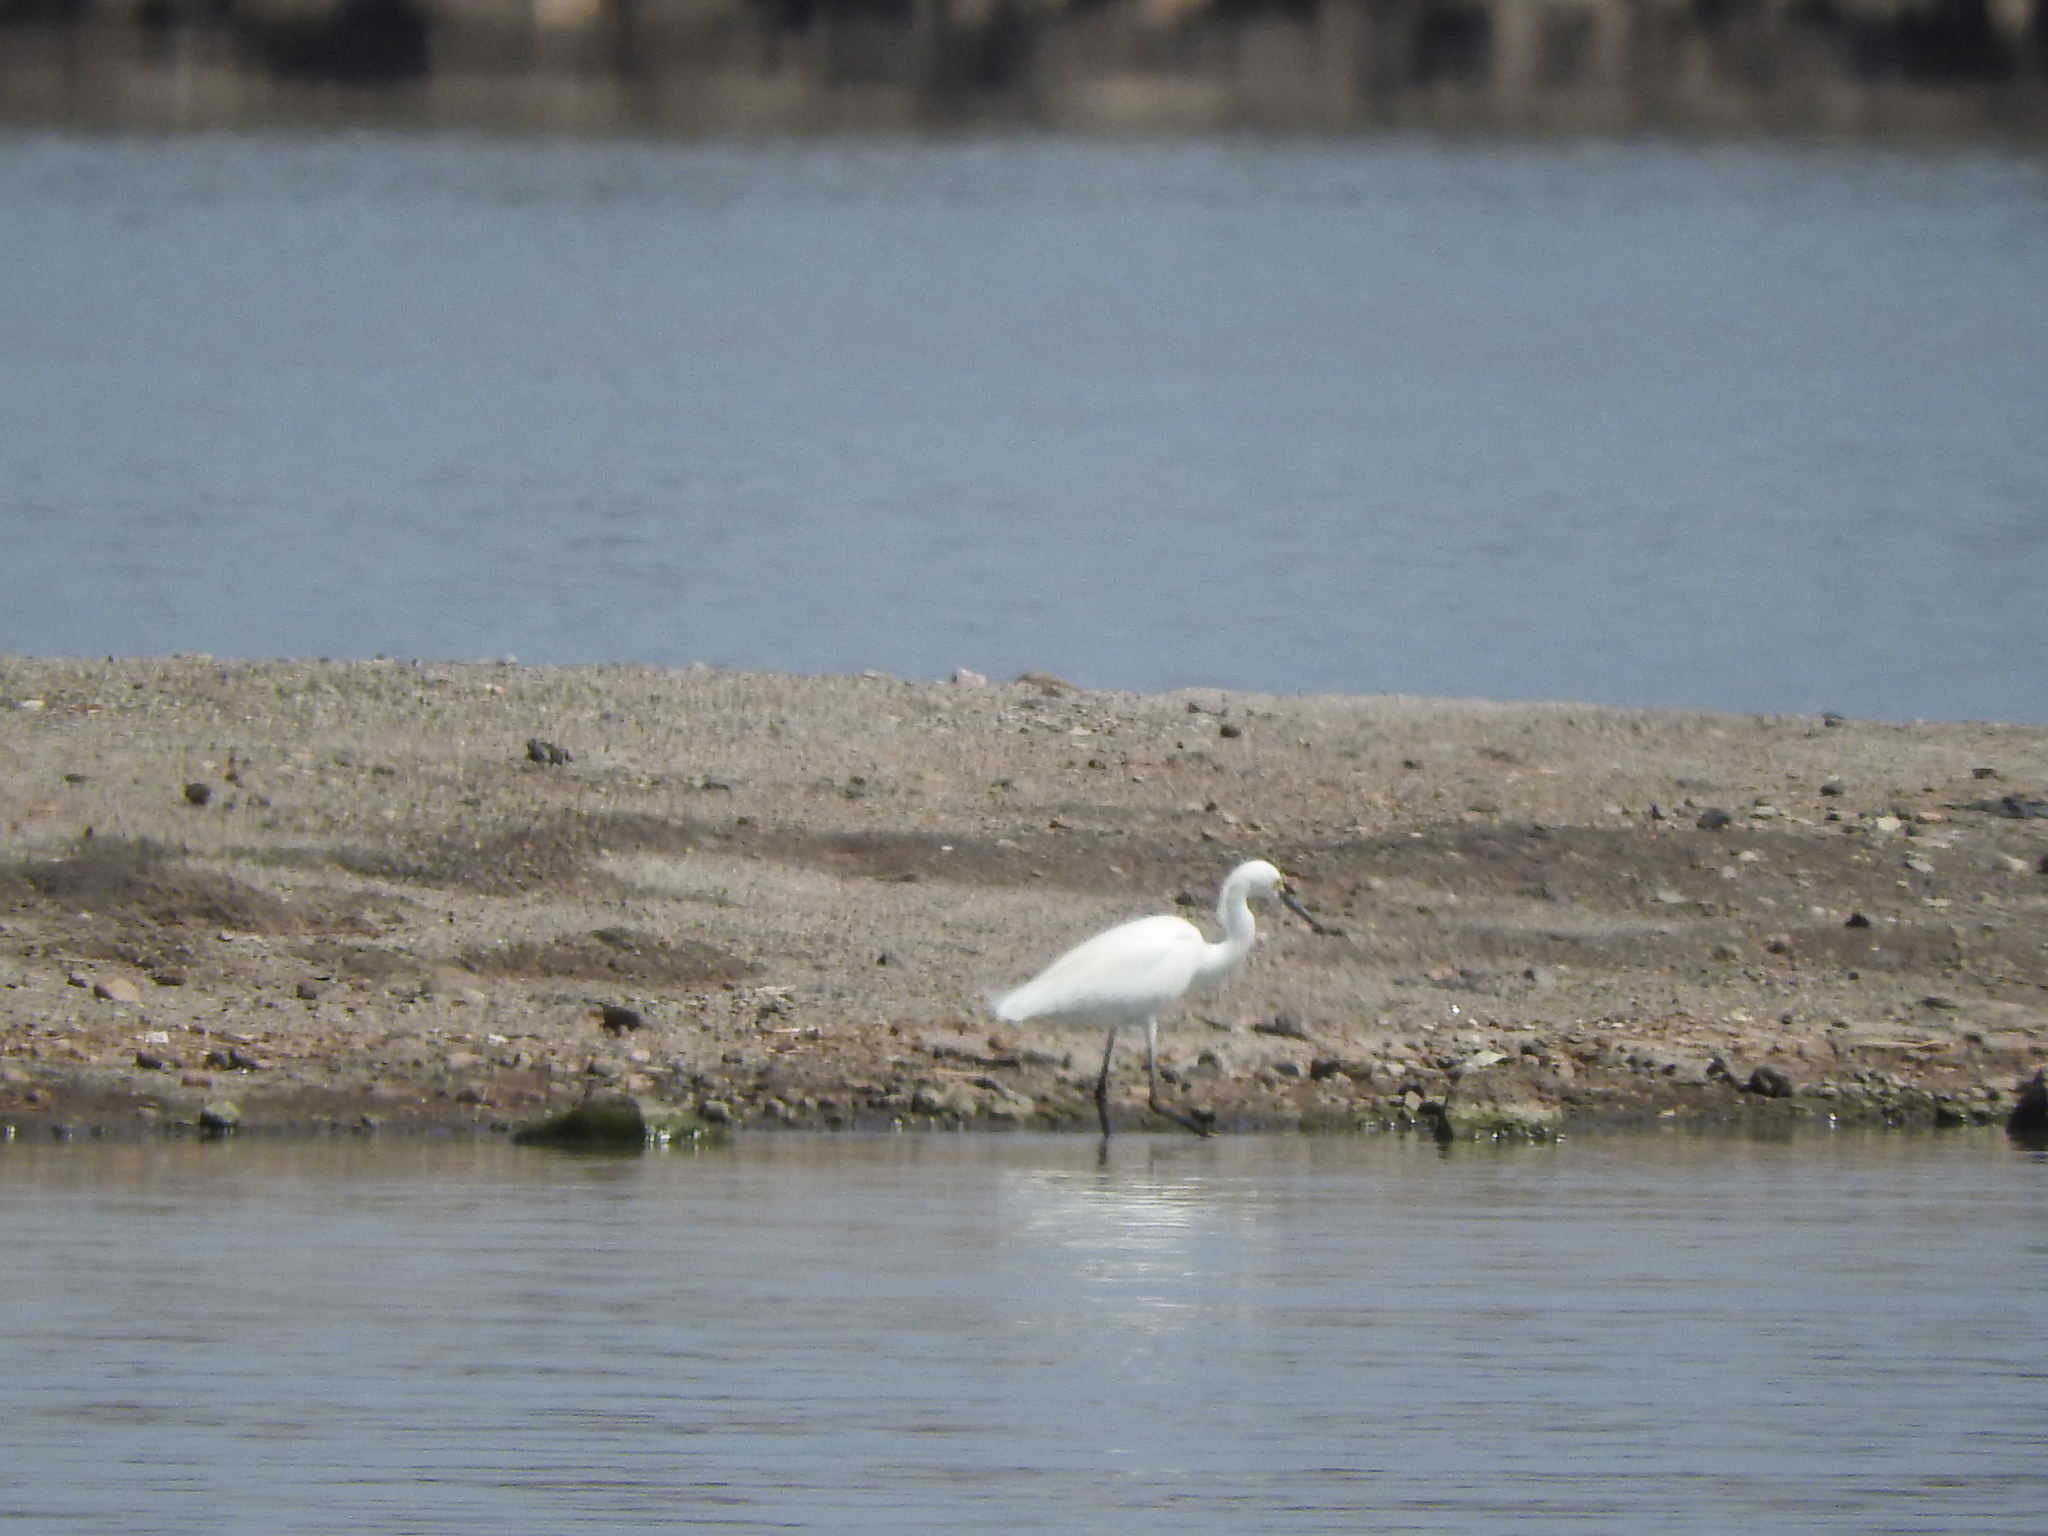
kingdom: Animalia
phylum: Chordata
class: Aves
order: Pelecaniformes
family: Ardeidae
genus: Egretta
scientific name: Egretta thula
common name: Snowy egret
